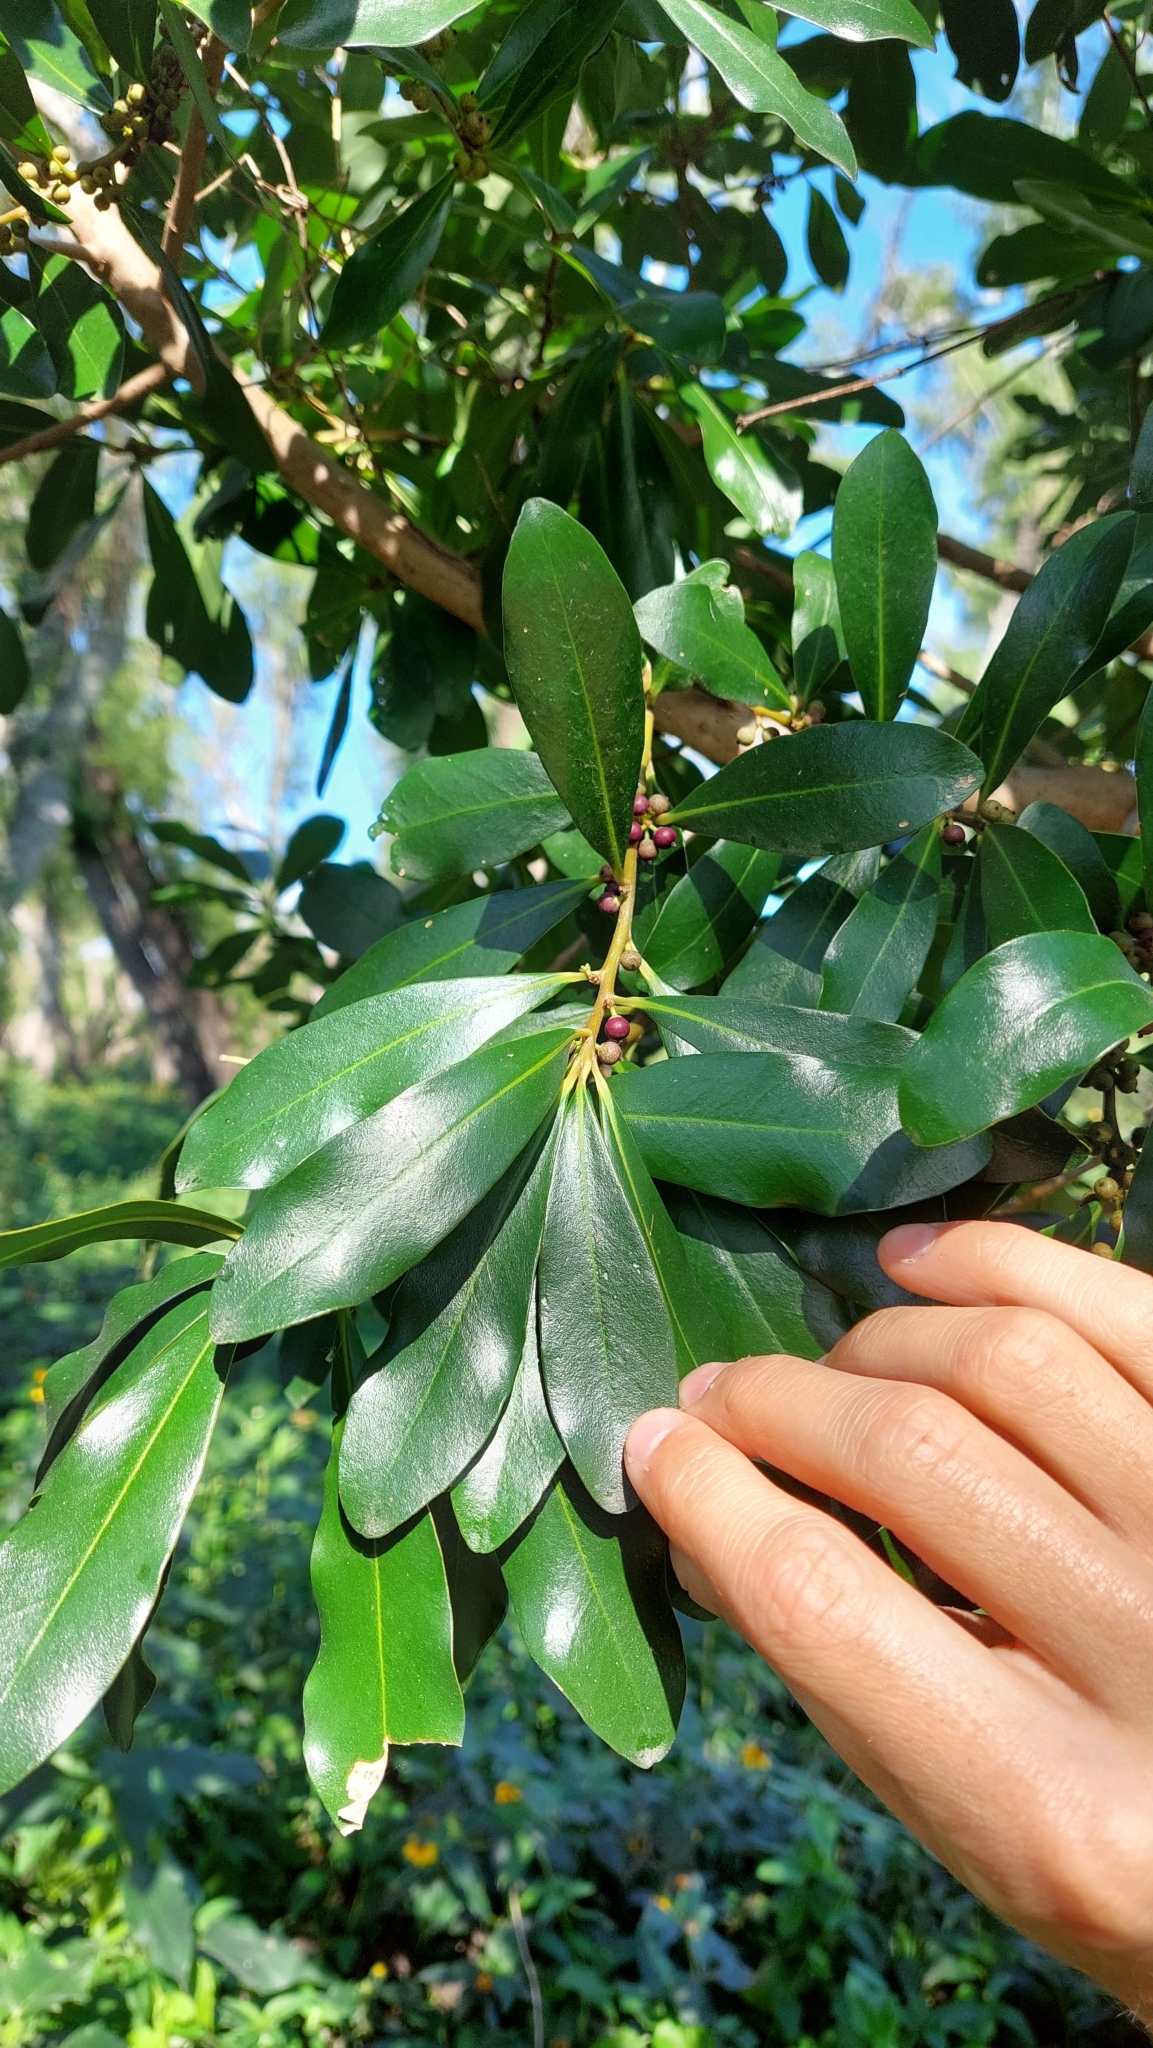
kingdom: Plantae
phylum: Tracheophyta
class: Magnoliopsida
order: Ericales
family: Primulaceae
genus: Myrsine
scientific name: Myrsine laetevirens
